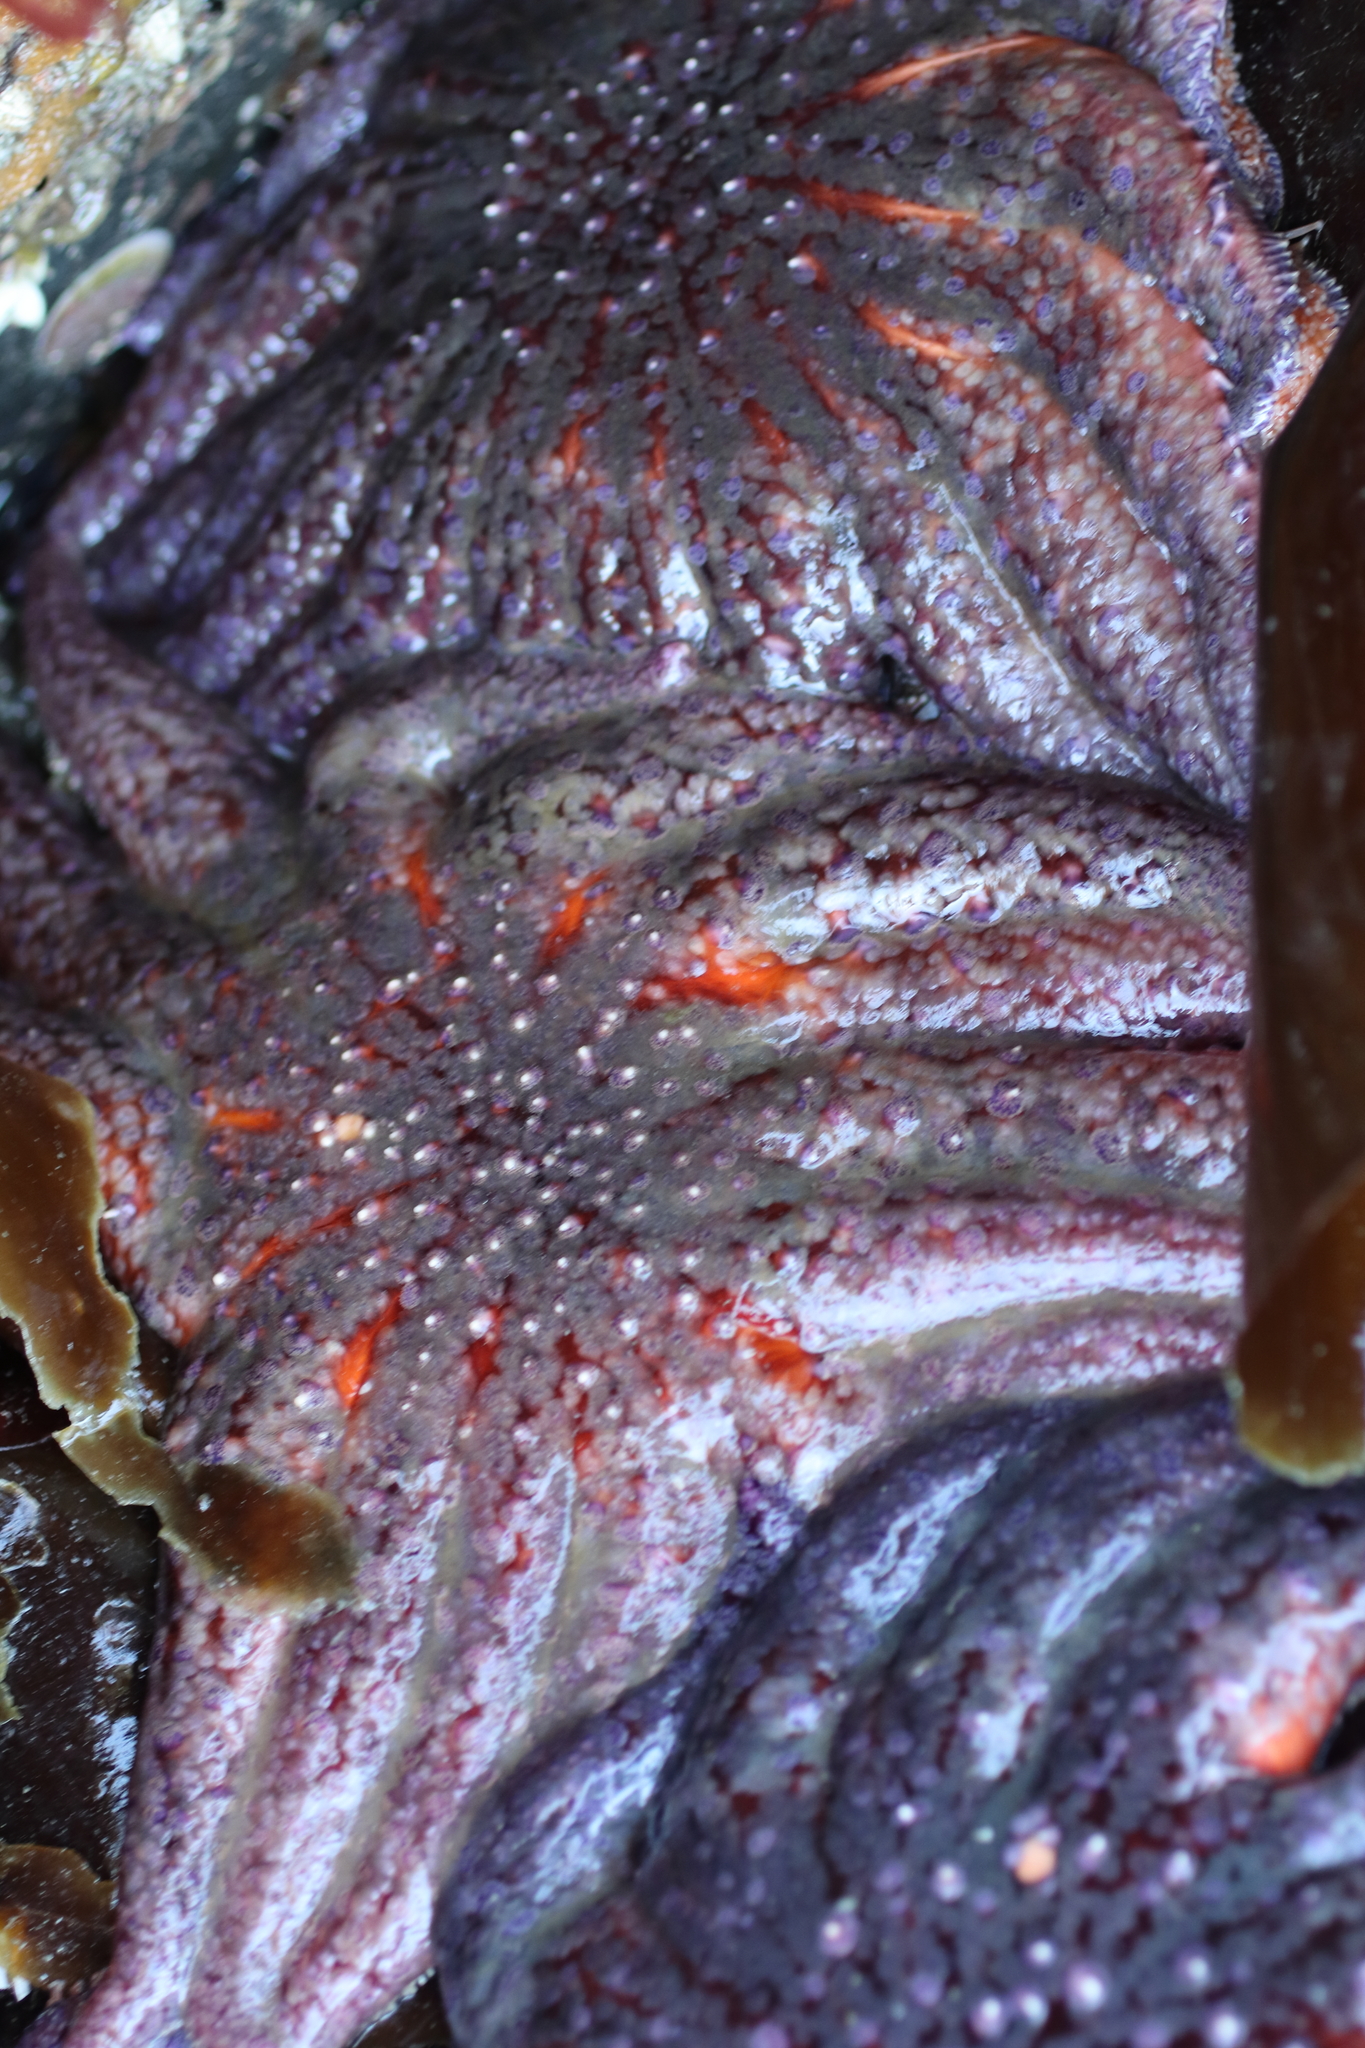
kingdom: Animalia
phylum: Echinodermata
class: Asteroidea
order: Forcipulatida
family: Asteriidae
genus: Pycnopodia
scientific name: Pycnopodia helianthoides
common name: Rag mop
